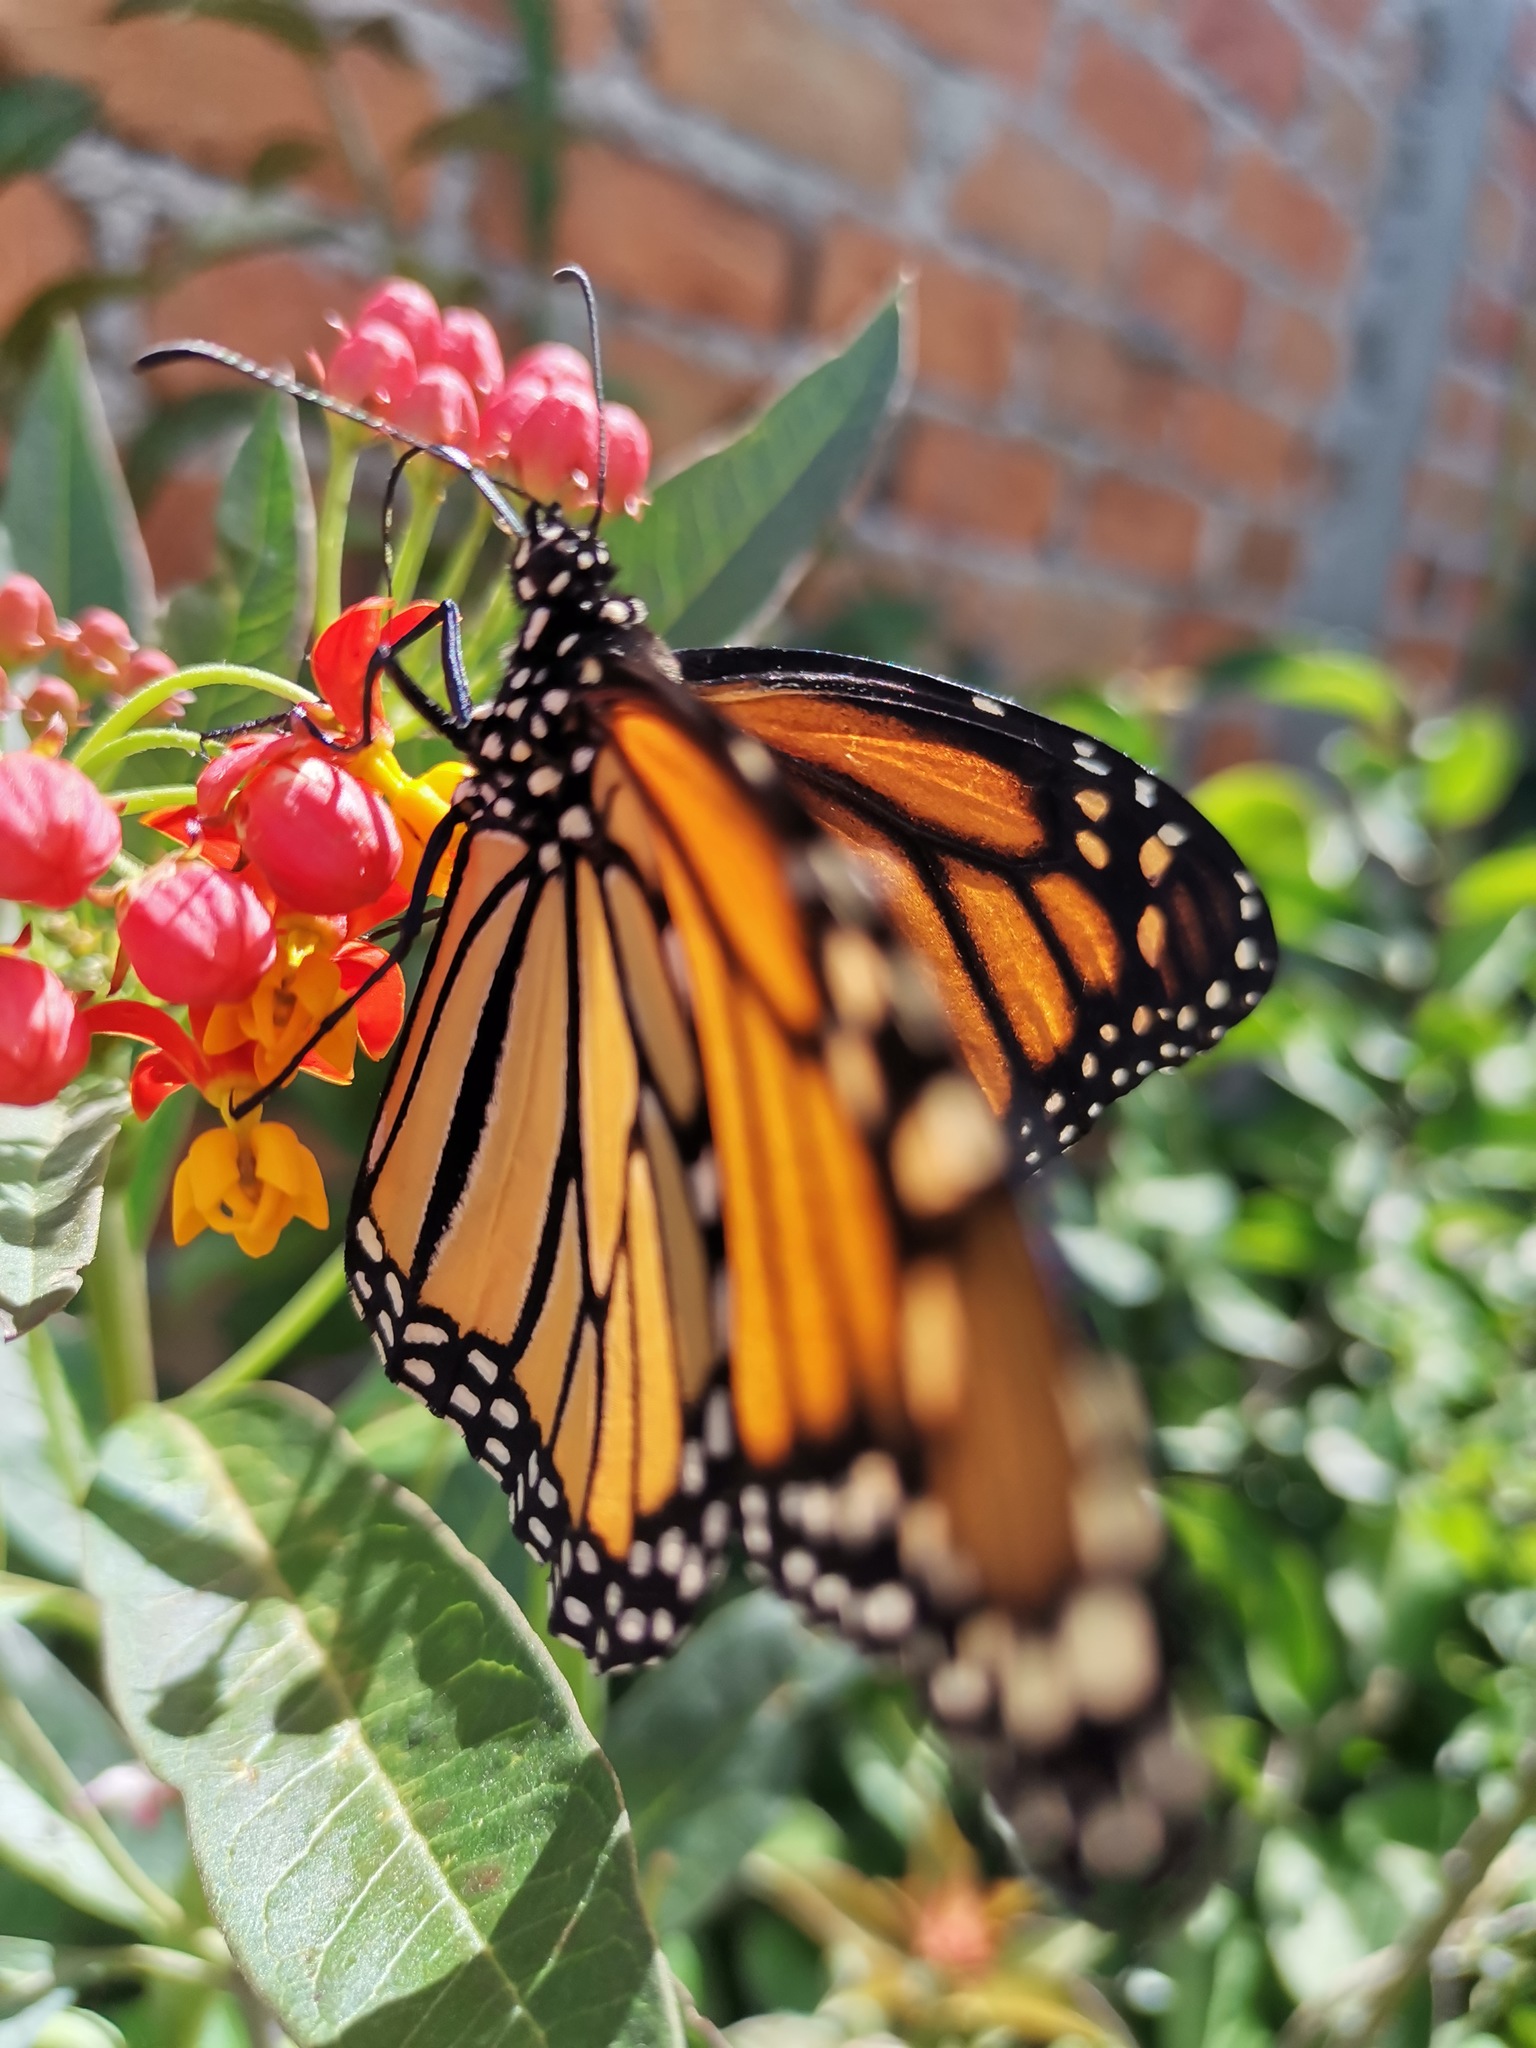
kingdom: Animalia
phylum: Arthropoda
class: Insecta
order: Lepidoptera
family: Nymphalidae
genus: Danaus
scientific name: Danaus plexippus
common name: Monarch
